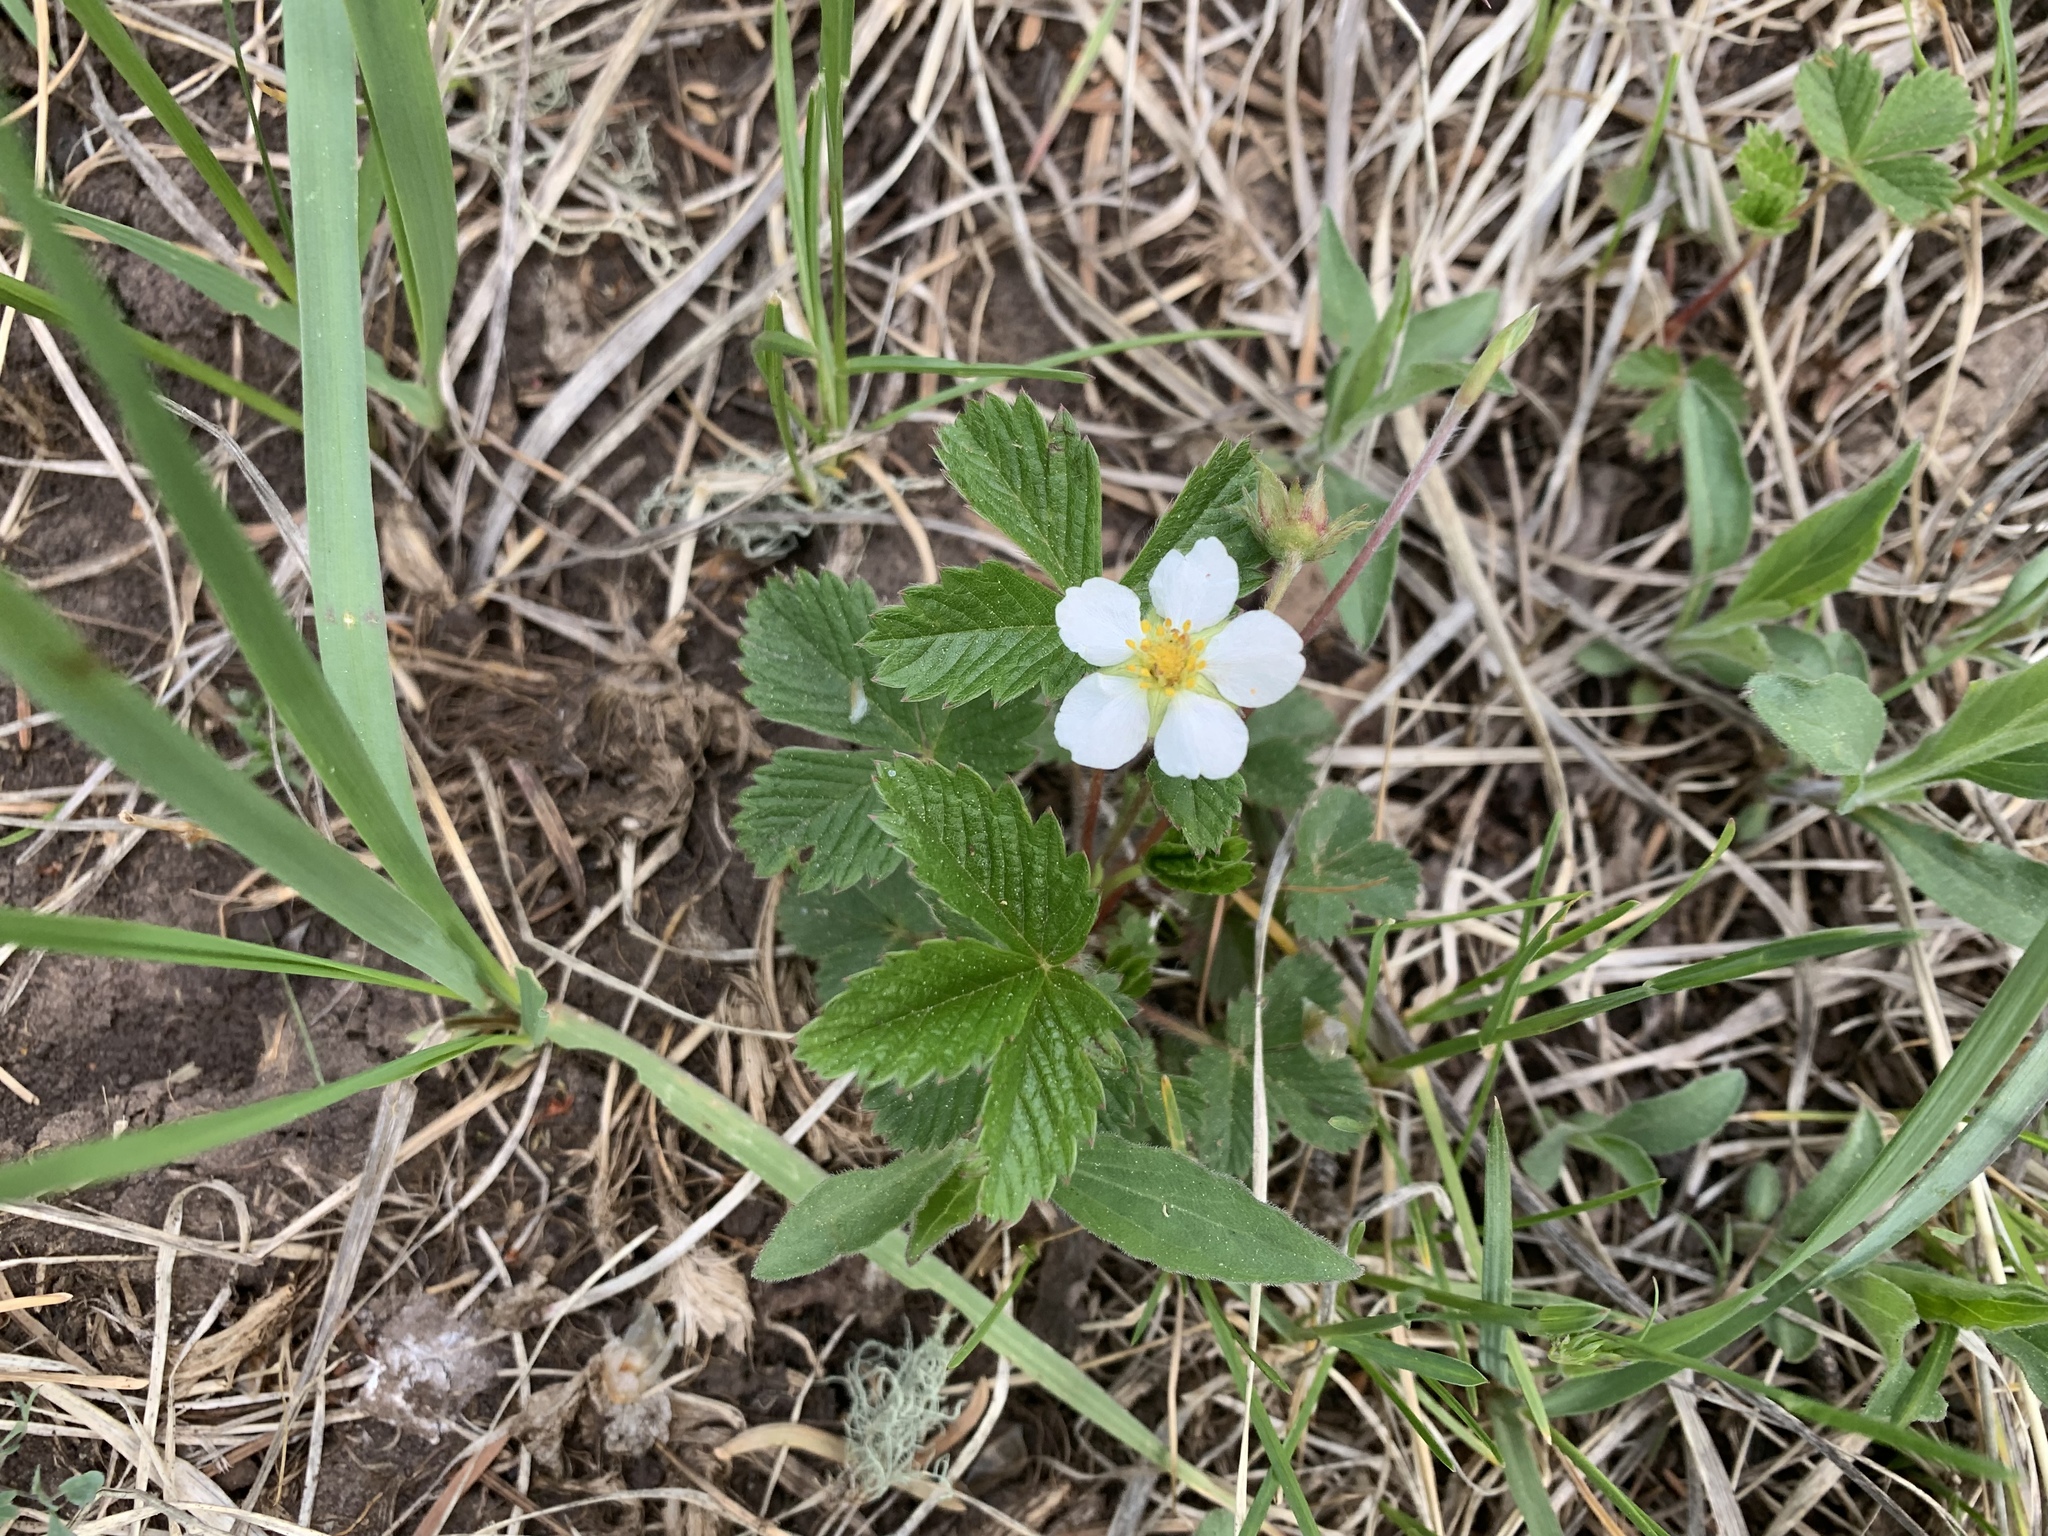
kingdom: Plantae
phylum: Tracheophyta
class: Magnoliopsida
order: Rosales
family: Rosaceae
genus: Fragaria
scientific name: Fragaria vesca
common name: Wild strawberry
